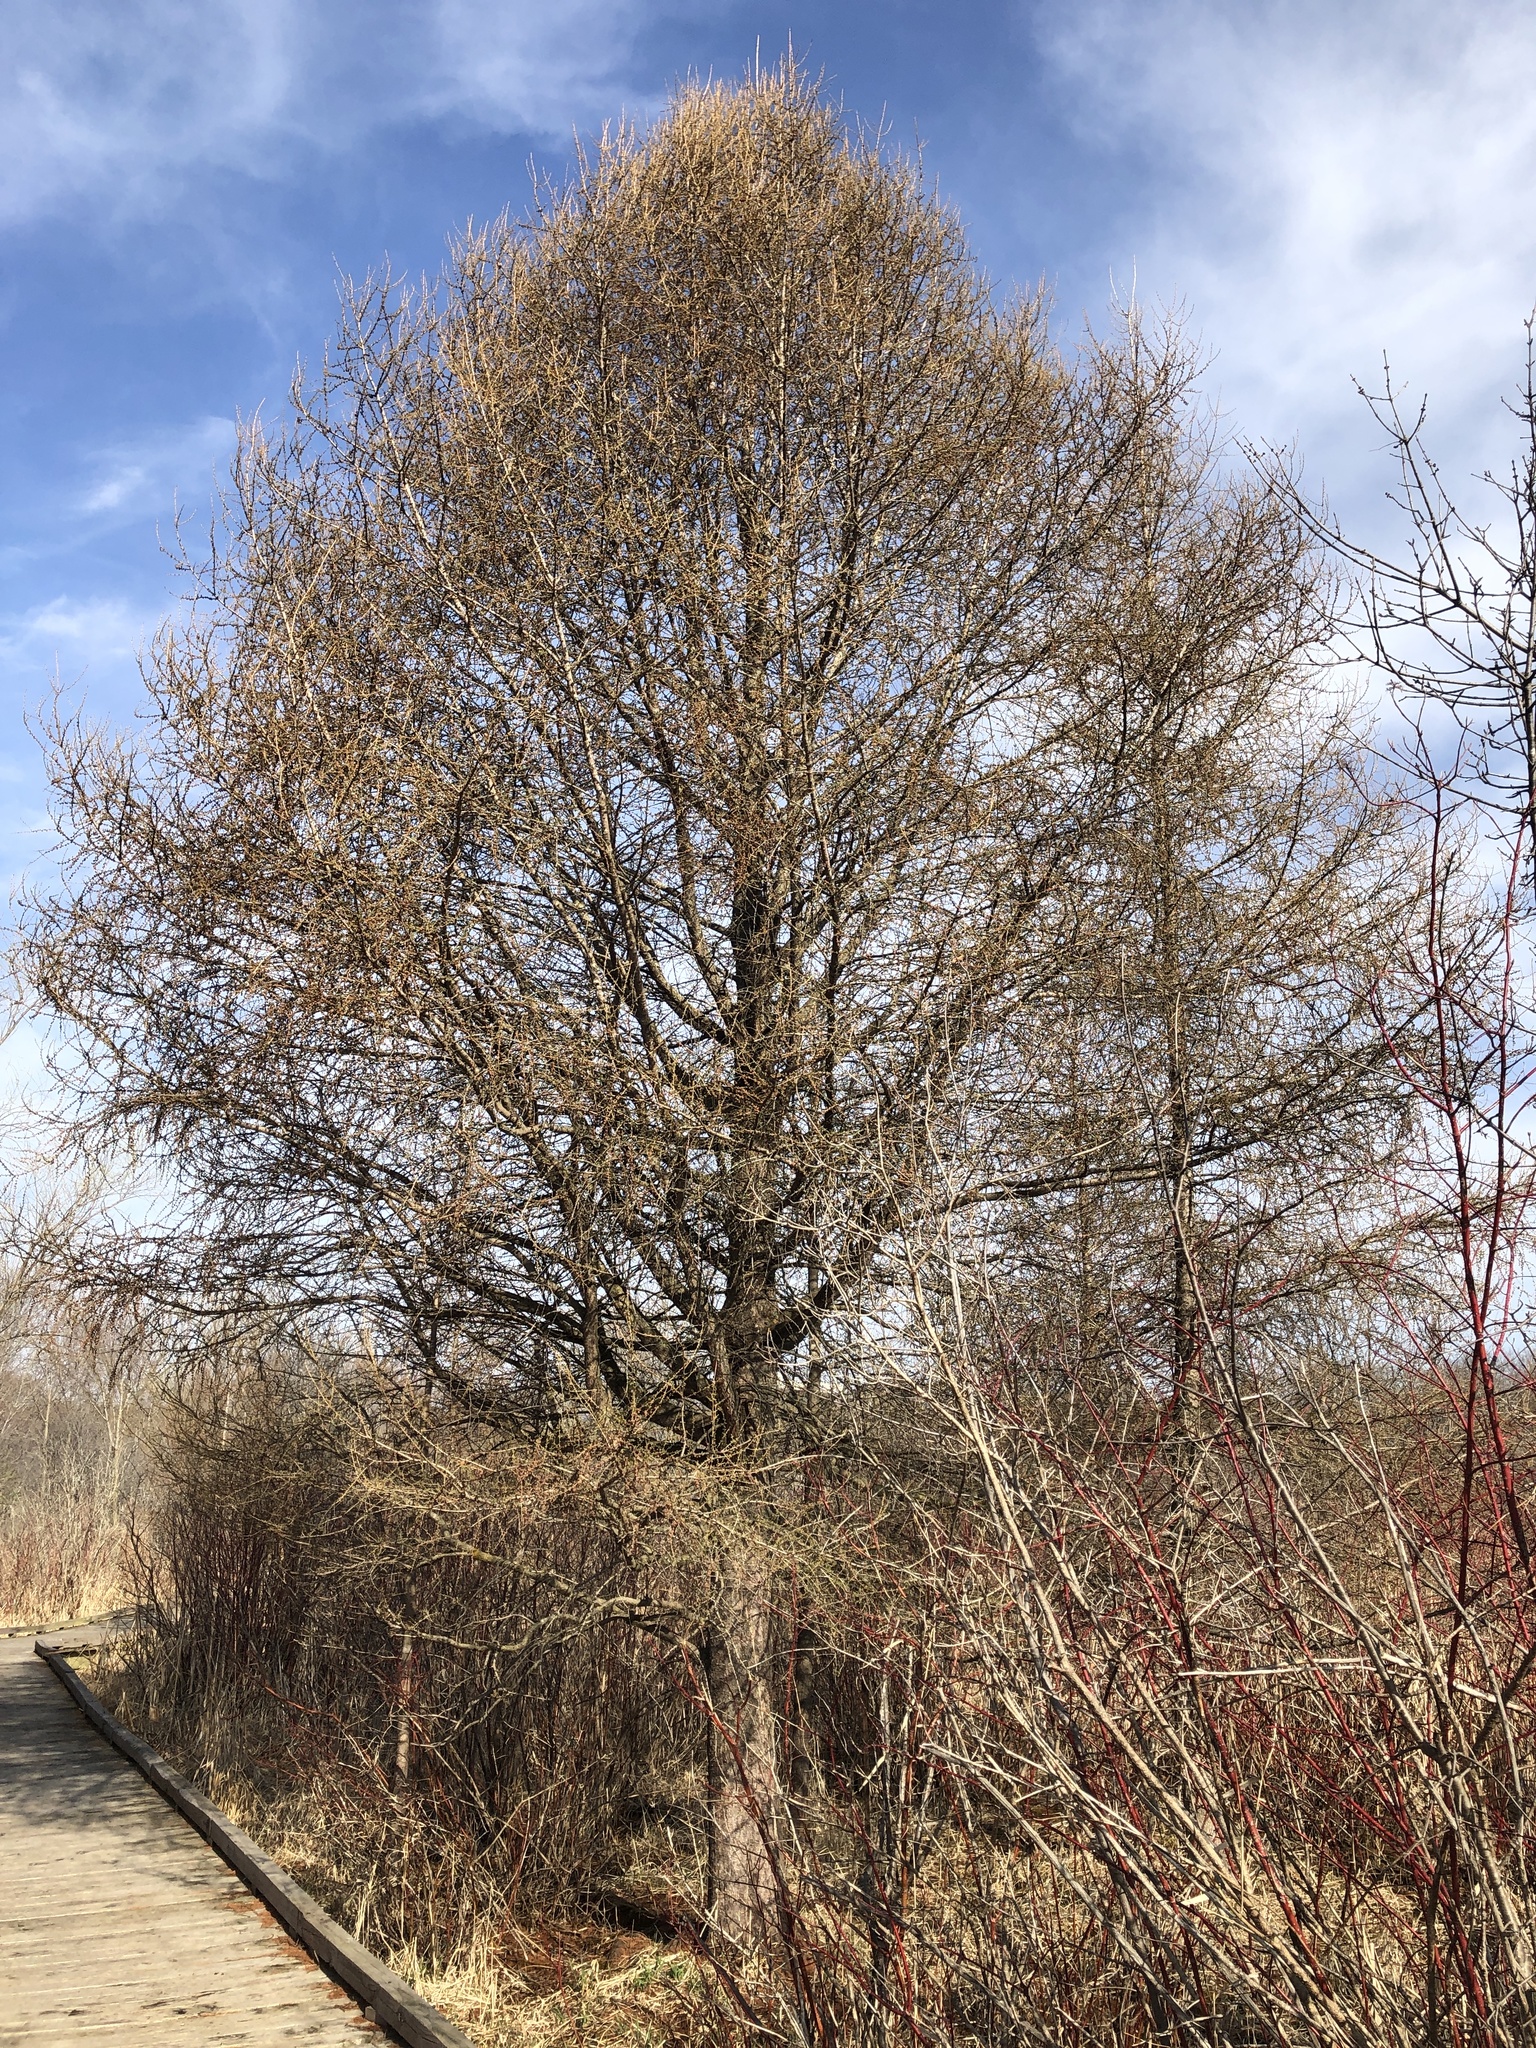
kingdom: Plantae
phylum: Tracheophyta
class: Pinopsida
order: Pinales
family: Pinaceae
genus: Larix
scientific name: Larix laricina
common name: American larch
